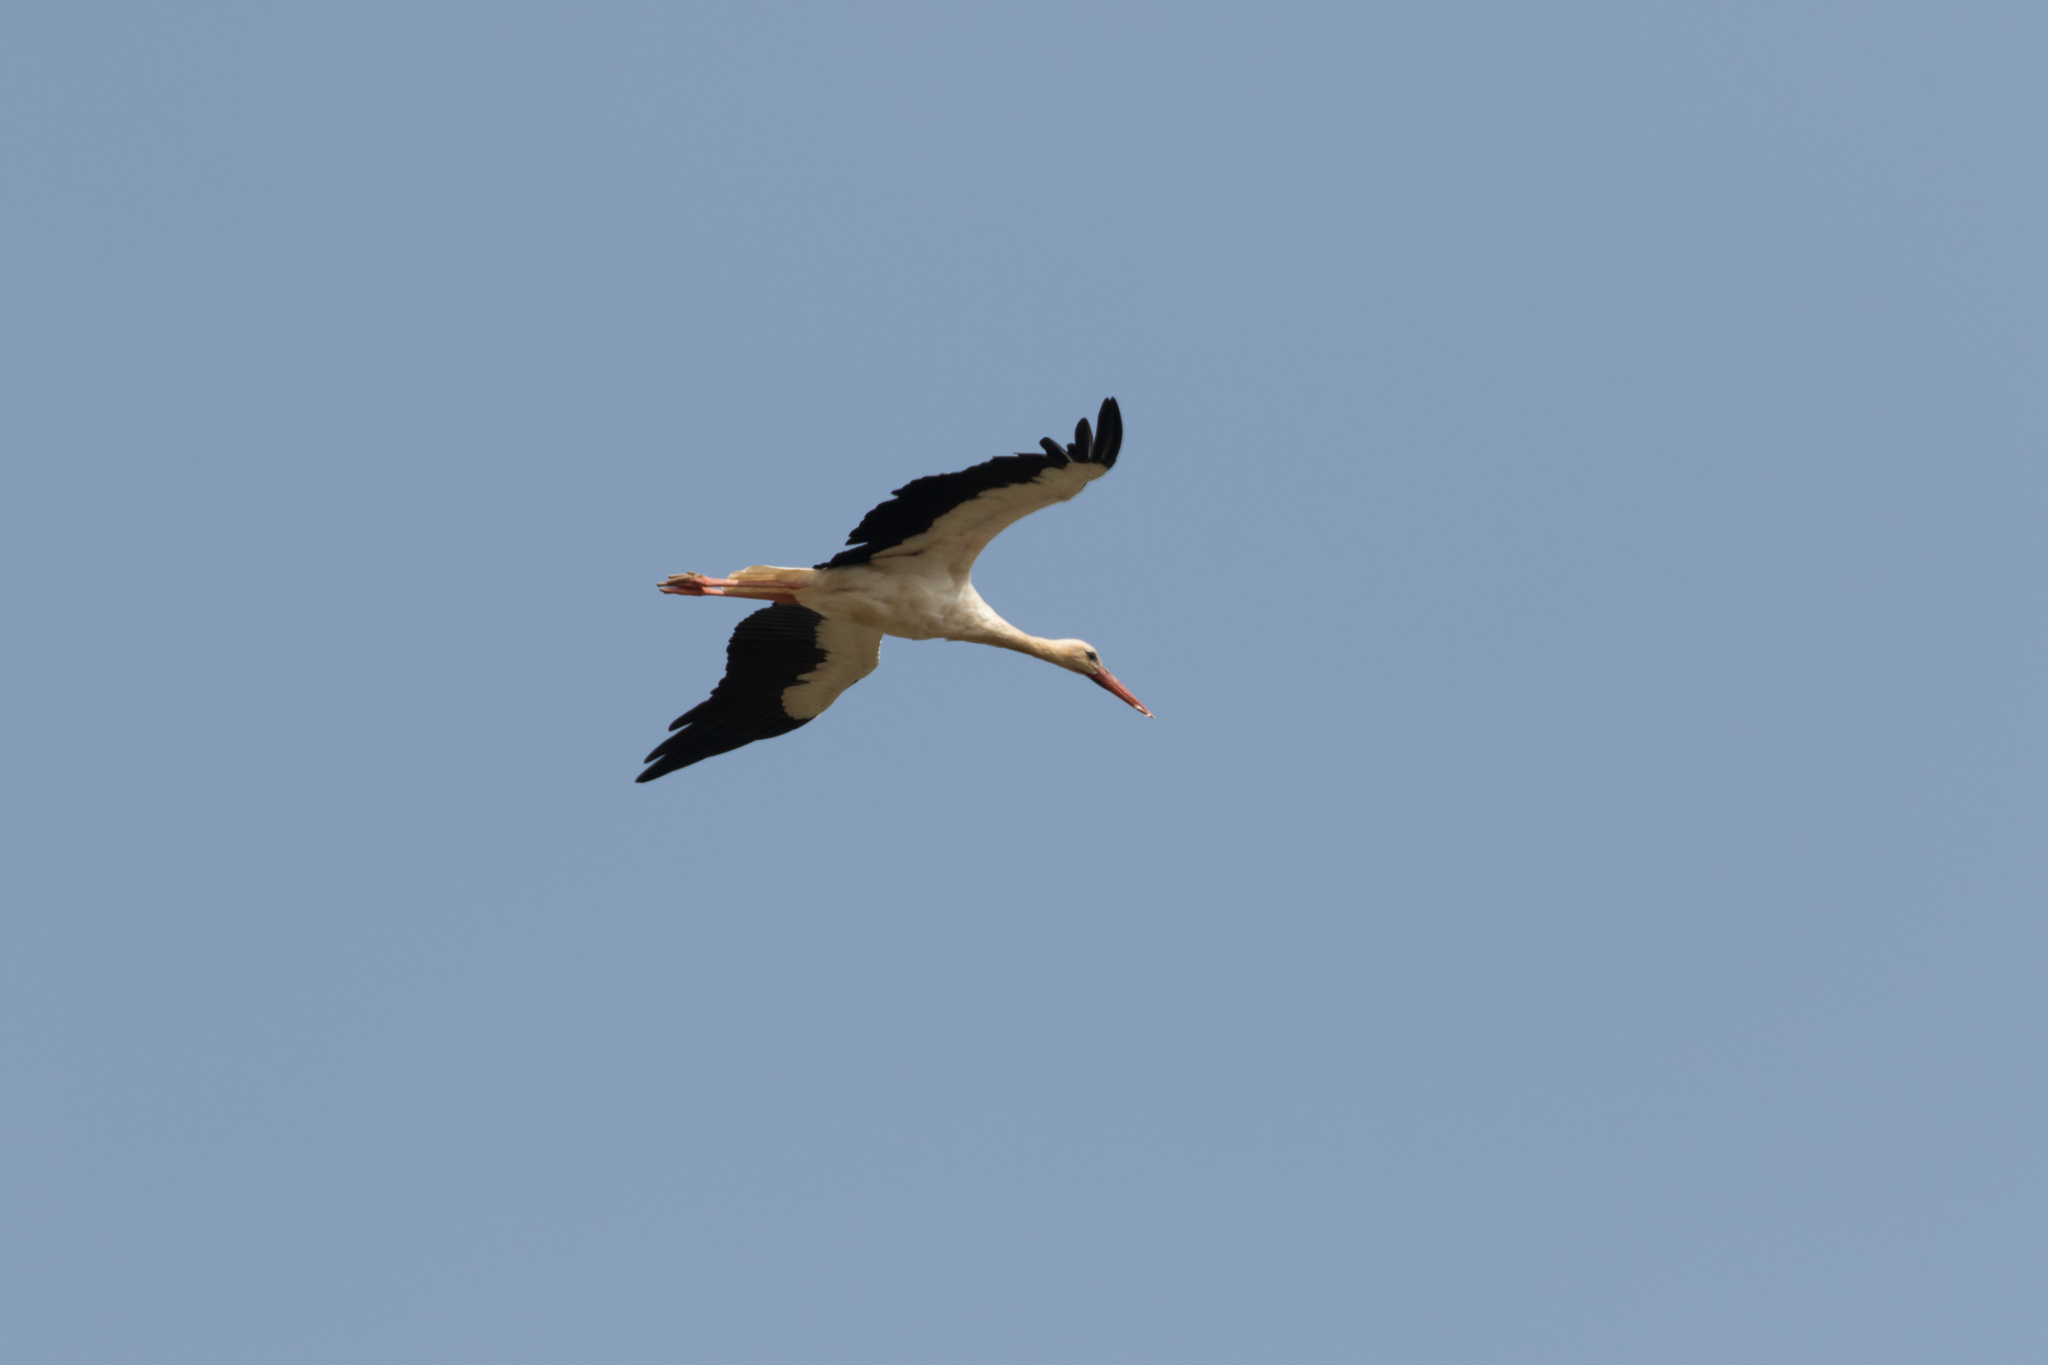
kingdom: Animalia
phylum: Chordata
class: Aves
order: Ciconiiformes
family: Ciconiidae
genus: Ciconia
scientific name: Ciconia ciconia
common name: White stork
